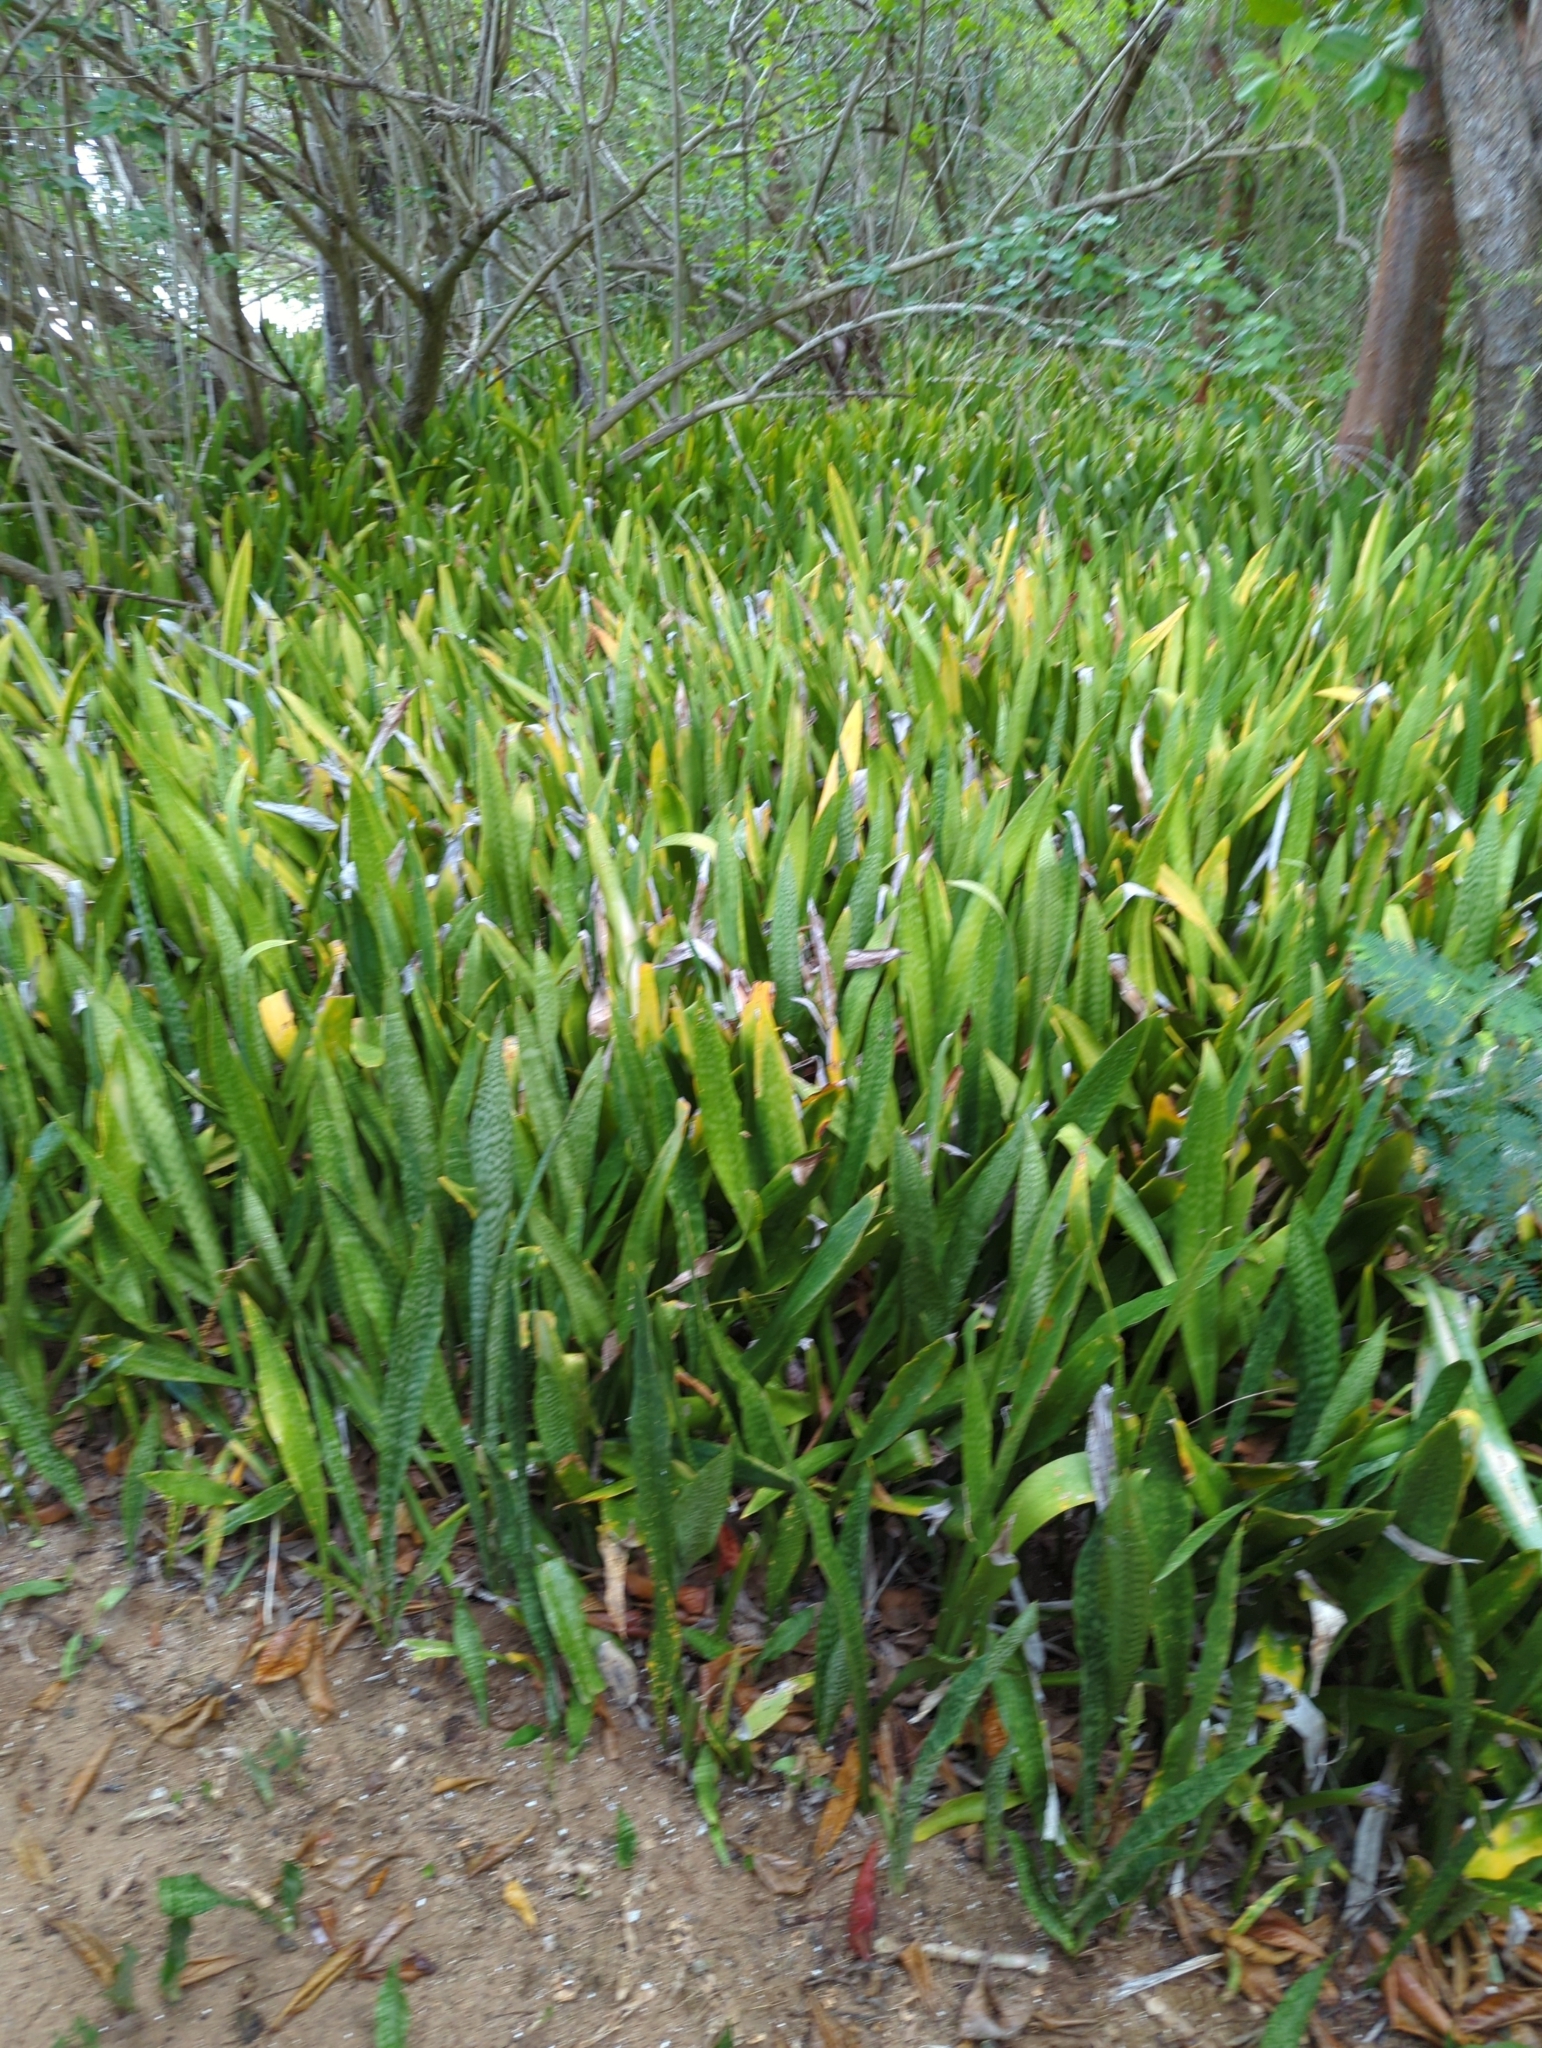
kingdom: Plantae
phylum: Tracheophyta
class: Liliopsida
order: Asparagales
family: Asparagaceae
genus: Dracaena
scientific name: Dracaena hyacinthoides
